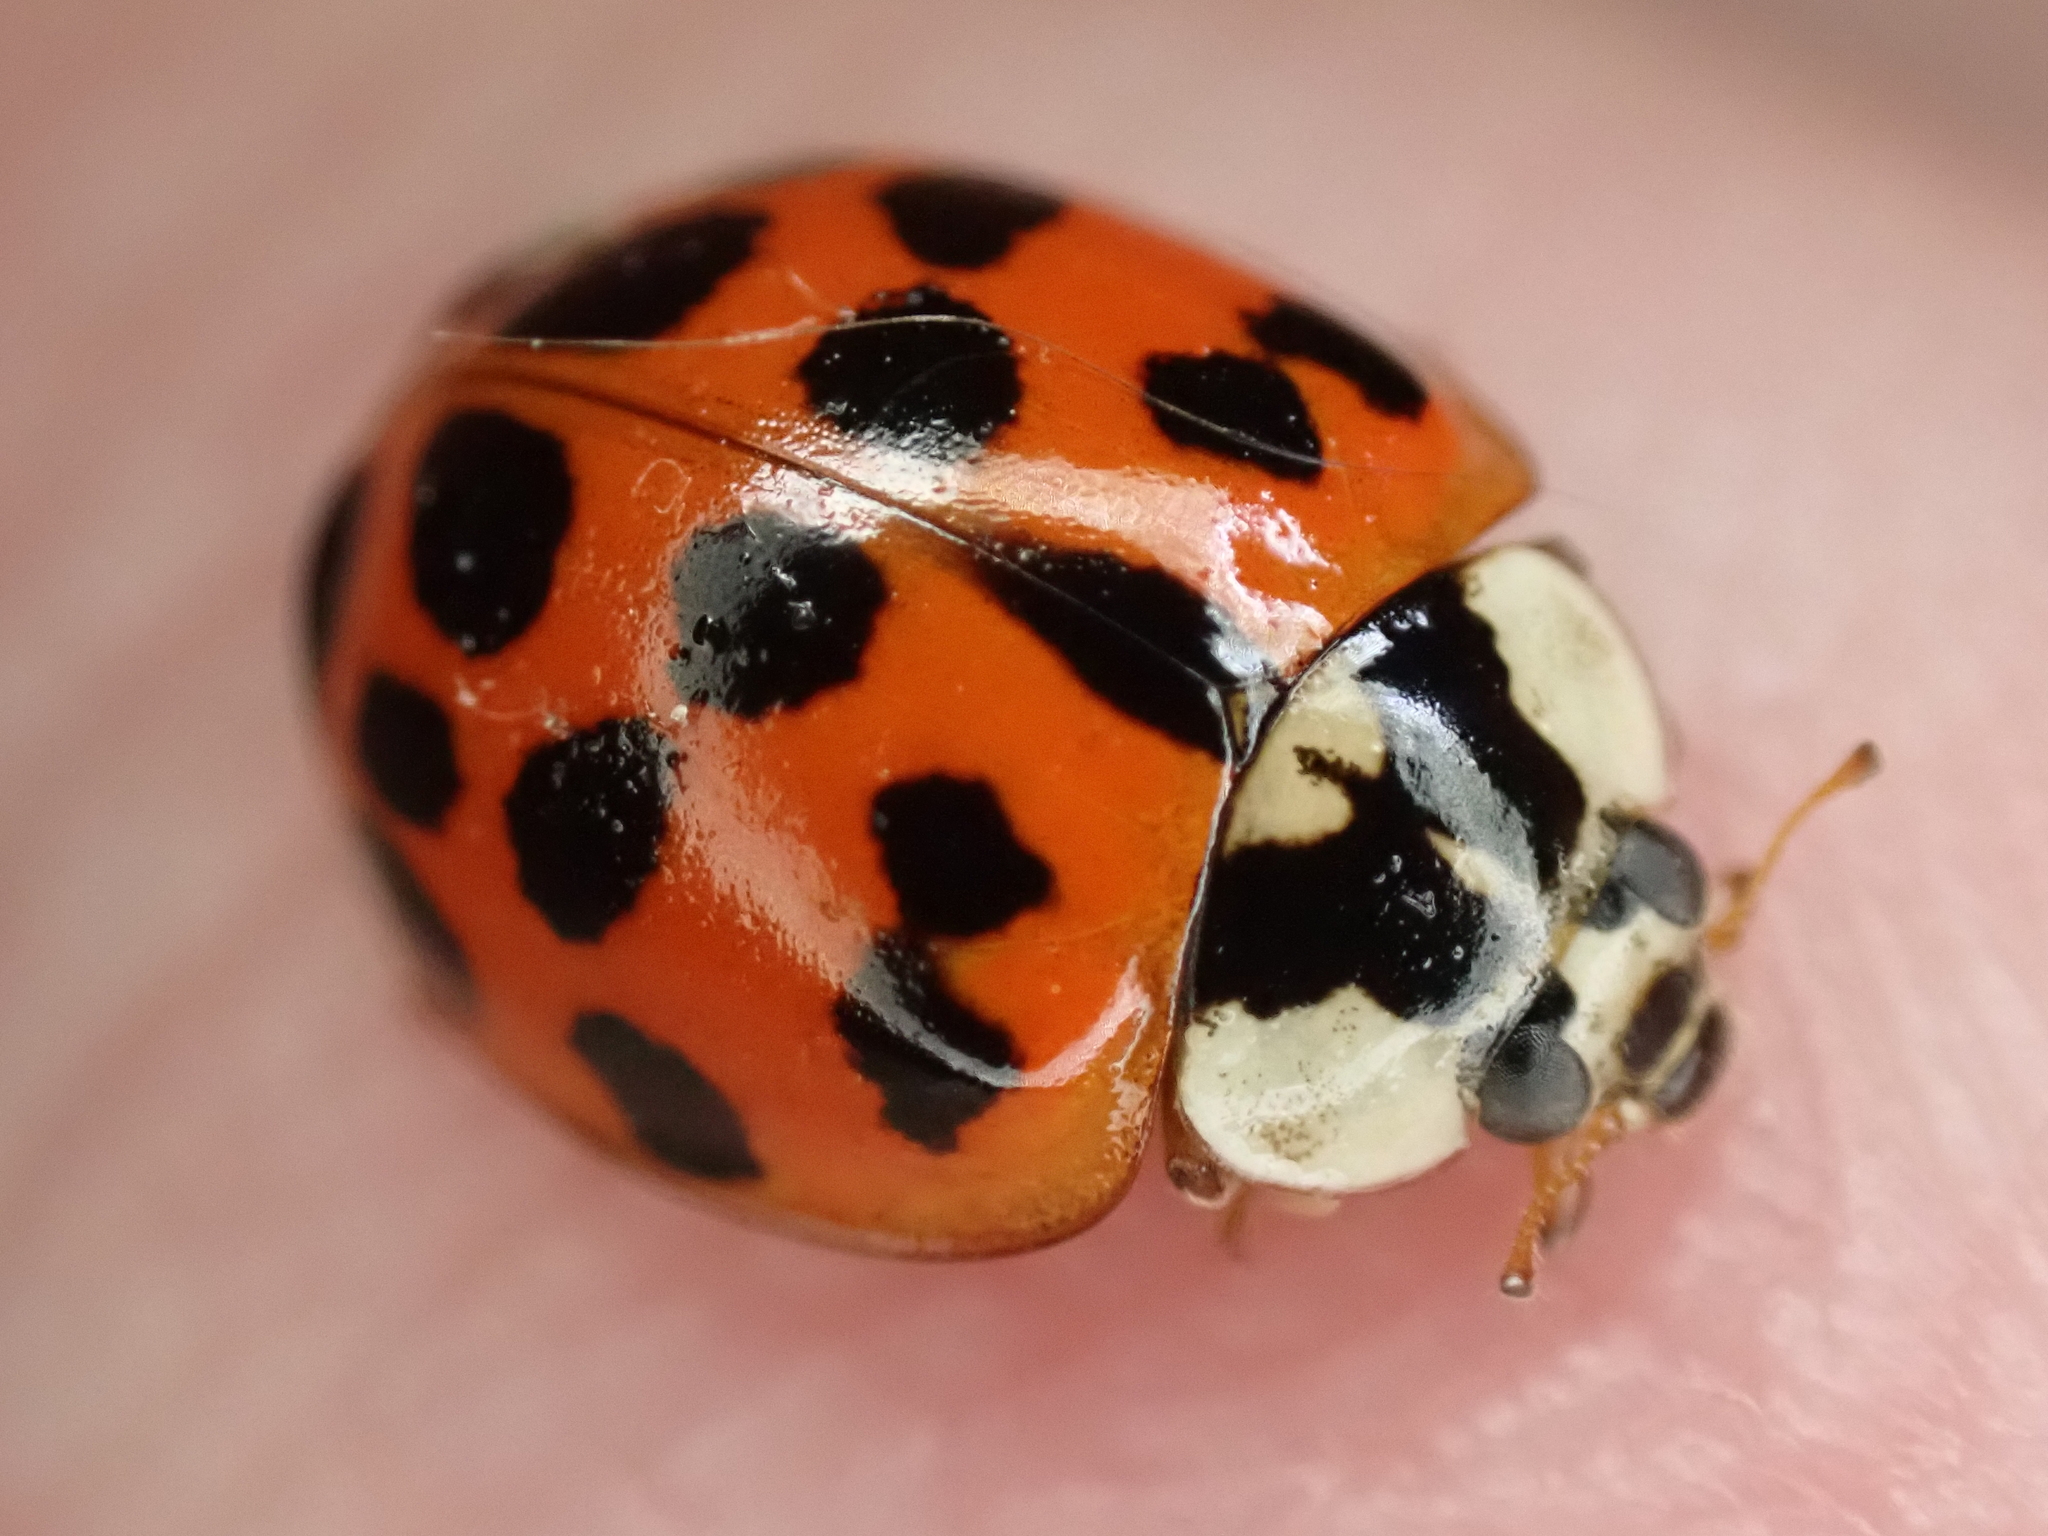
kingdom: Animalia
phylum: Arthropoda
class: Insecta
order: Coleoptera
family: Coccinellidae
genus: Harmonia
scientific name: Harmonia axyridis
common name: Harlequin ladybird
